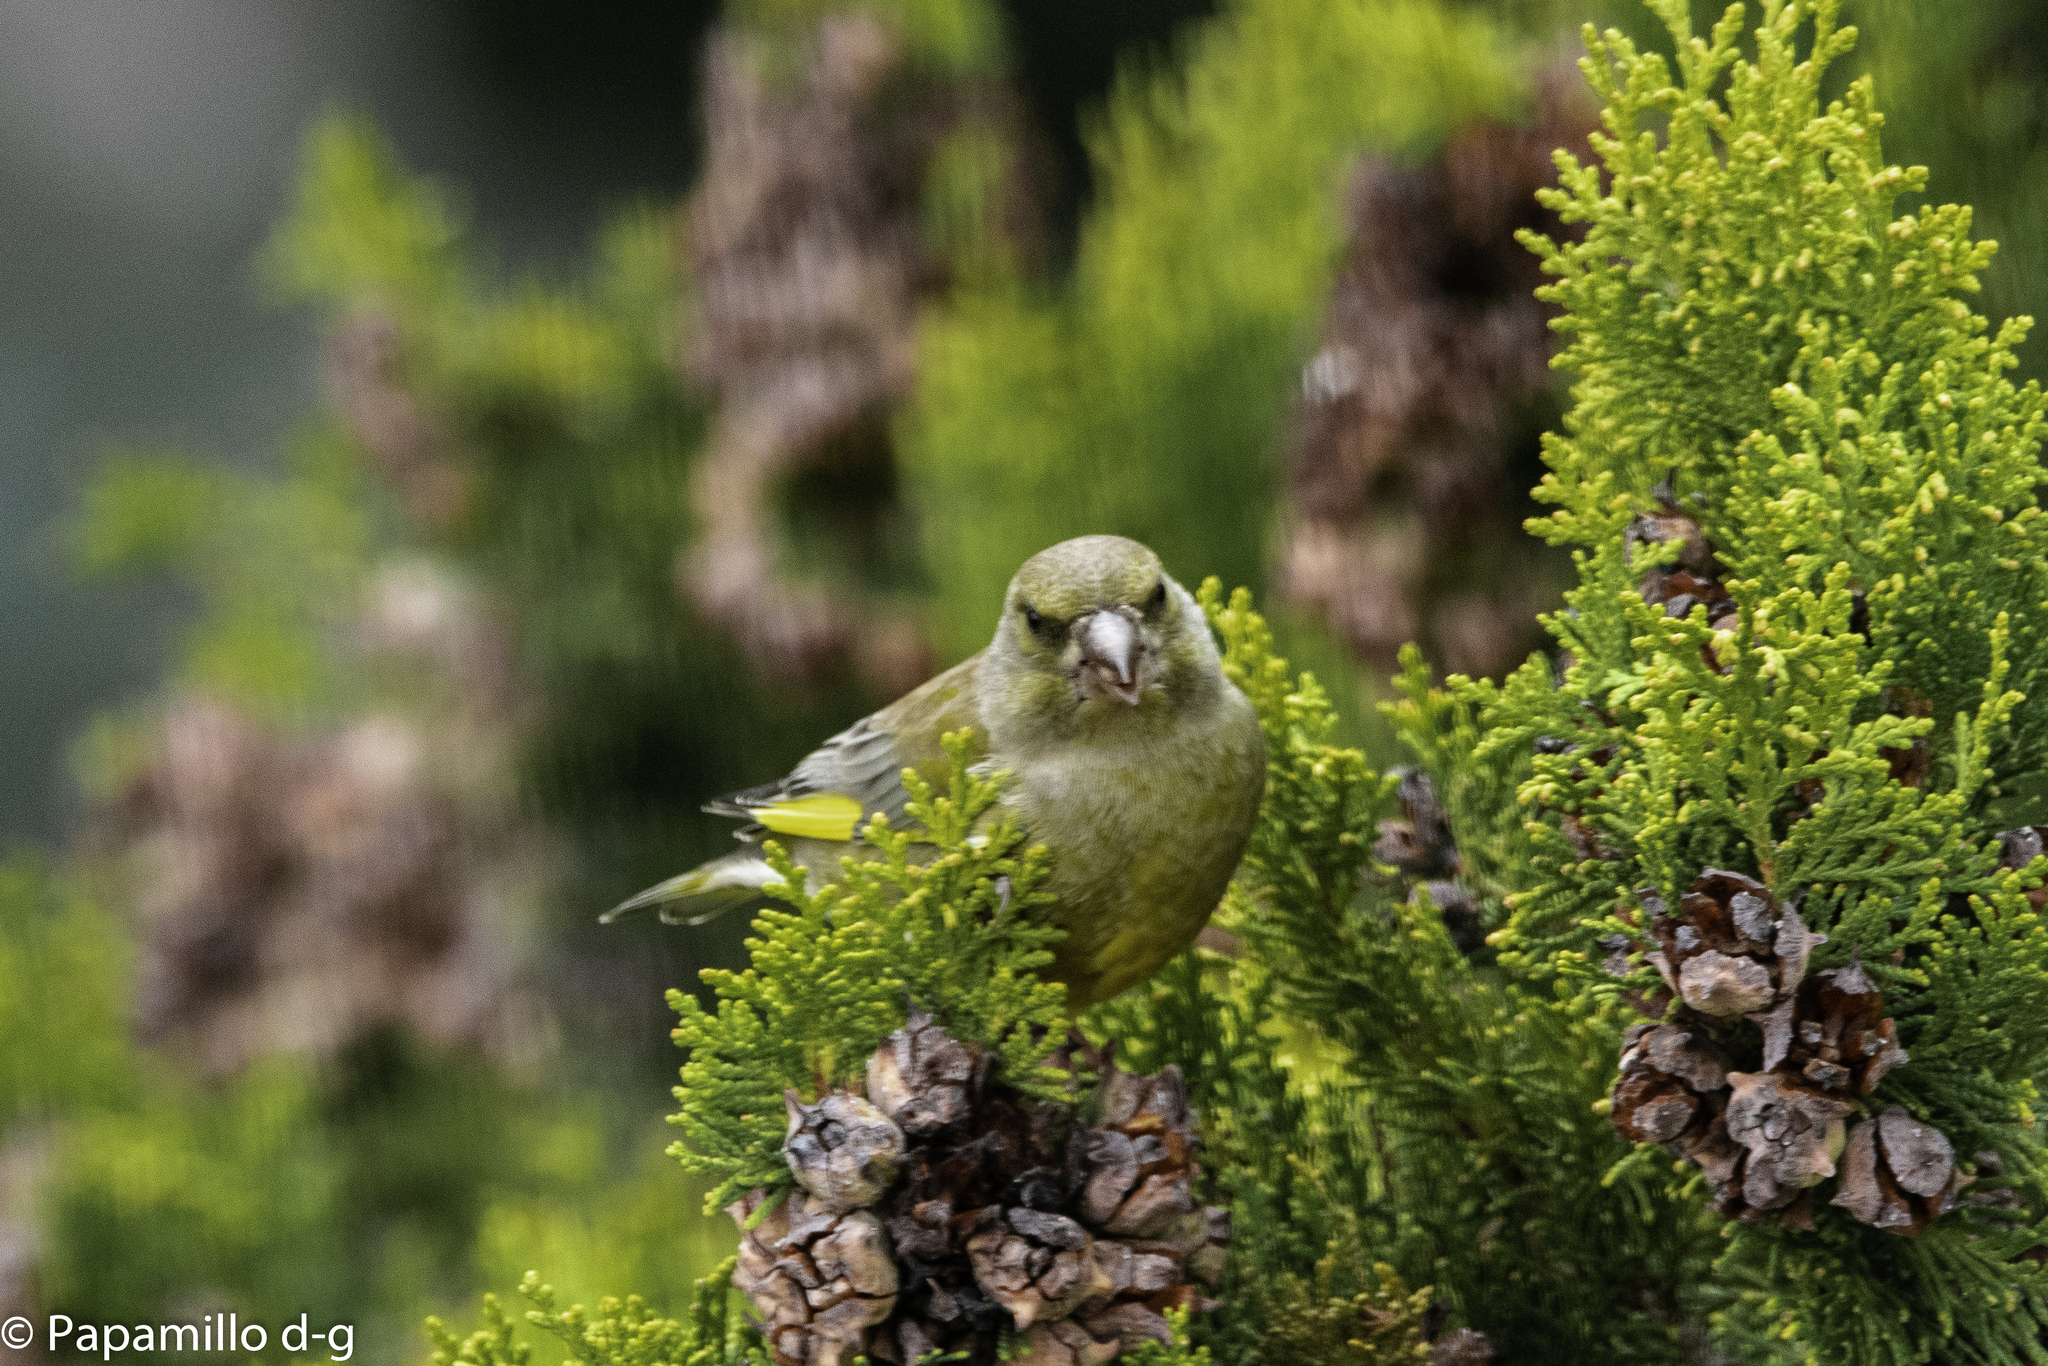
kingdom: Plantae
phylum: Tracheophyta
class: Liliopsida
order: Poales
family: Poaceae
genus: Chloris
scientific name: Chloris chloris
